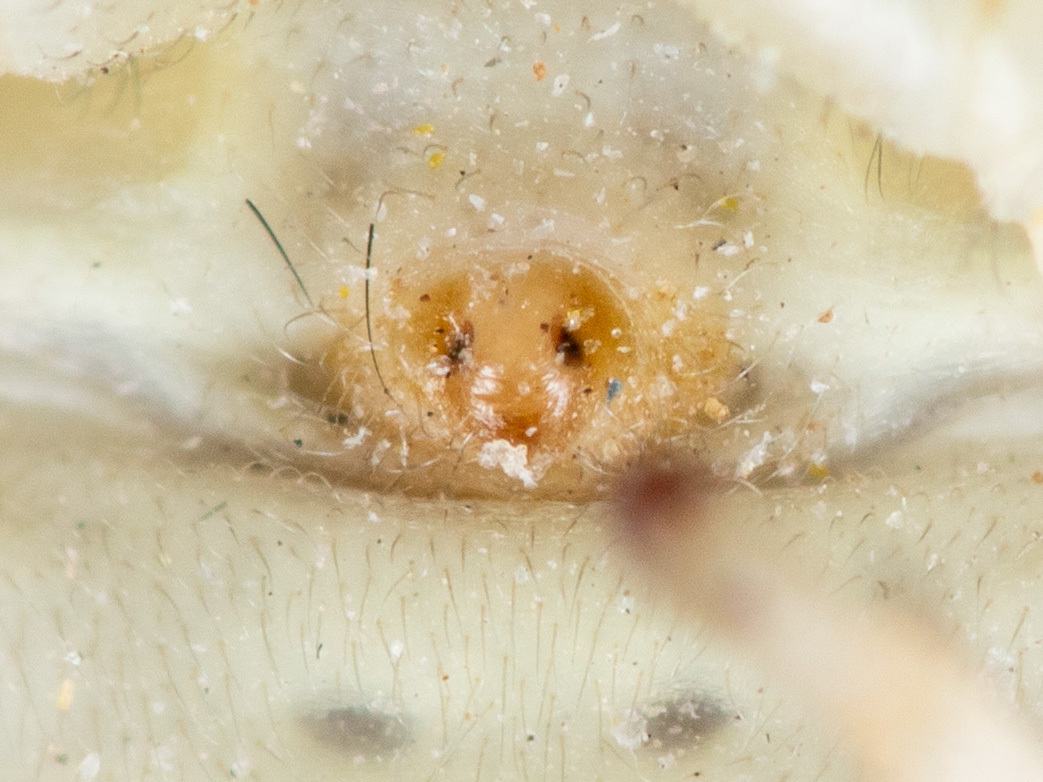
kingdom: Animalia
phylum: Arthropoda
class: Arachnida
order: Araneae
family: Thomisidae
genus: Thomisus
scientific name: Thomisus onustus
